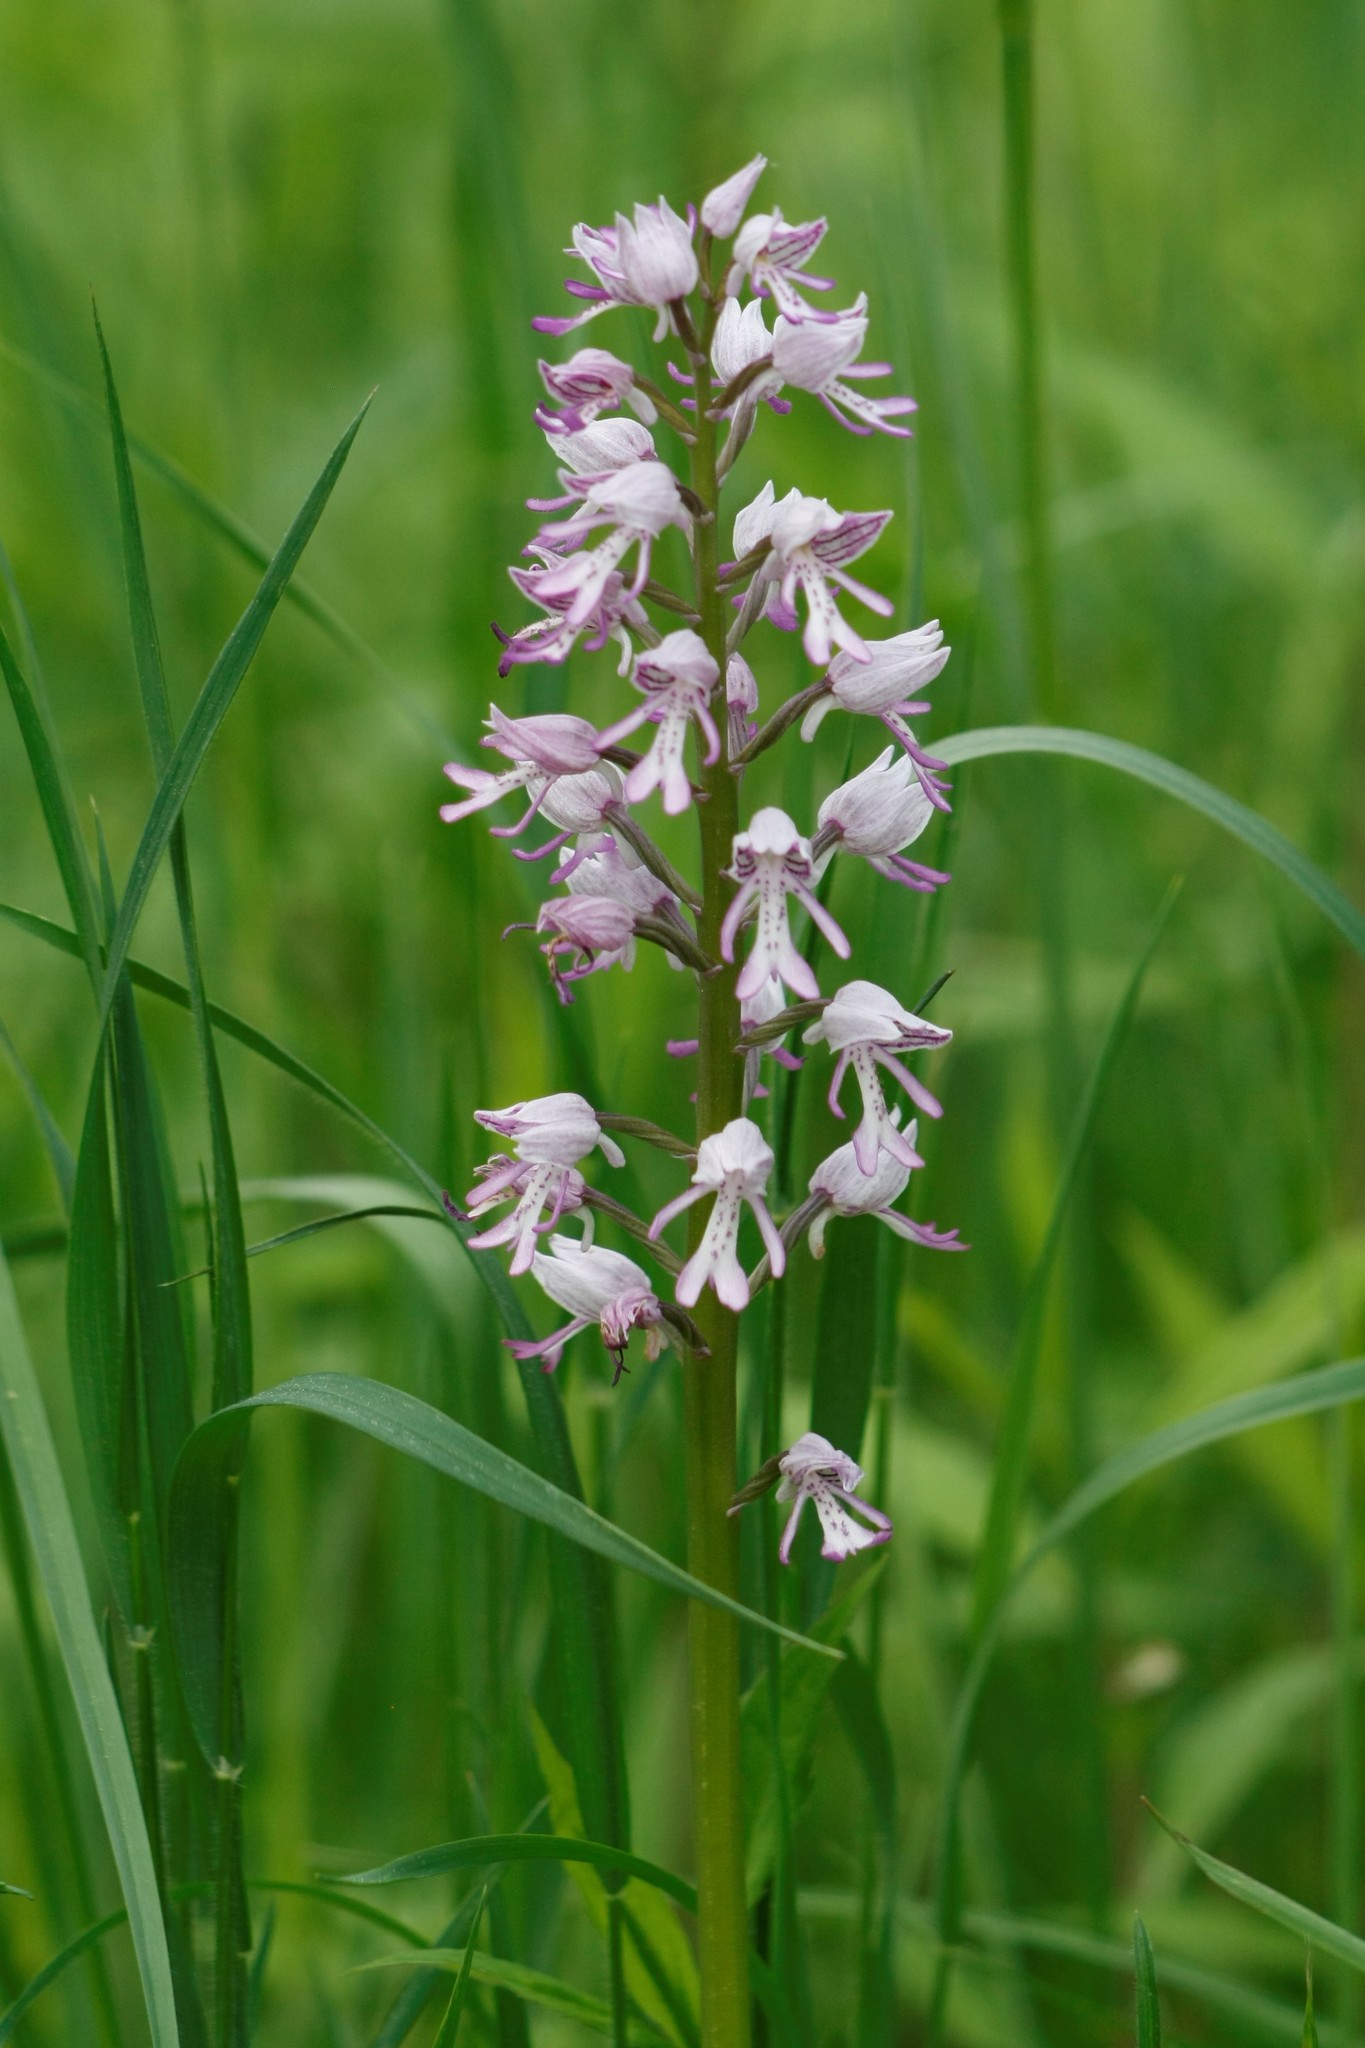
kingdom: Plantae
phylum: Tracheophyta
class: Liliopsida
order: Asparagales
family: Orchidaceae
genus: Orchis
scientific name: Orchis militaris
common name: Military orchid
